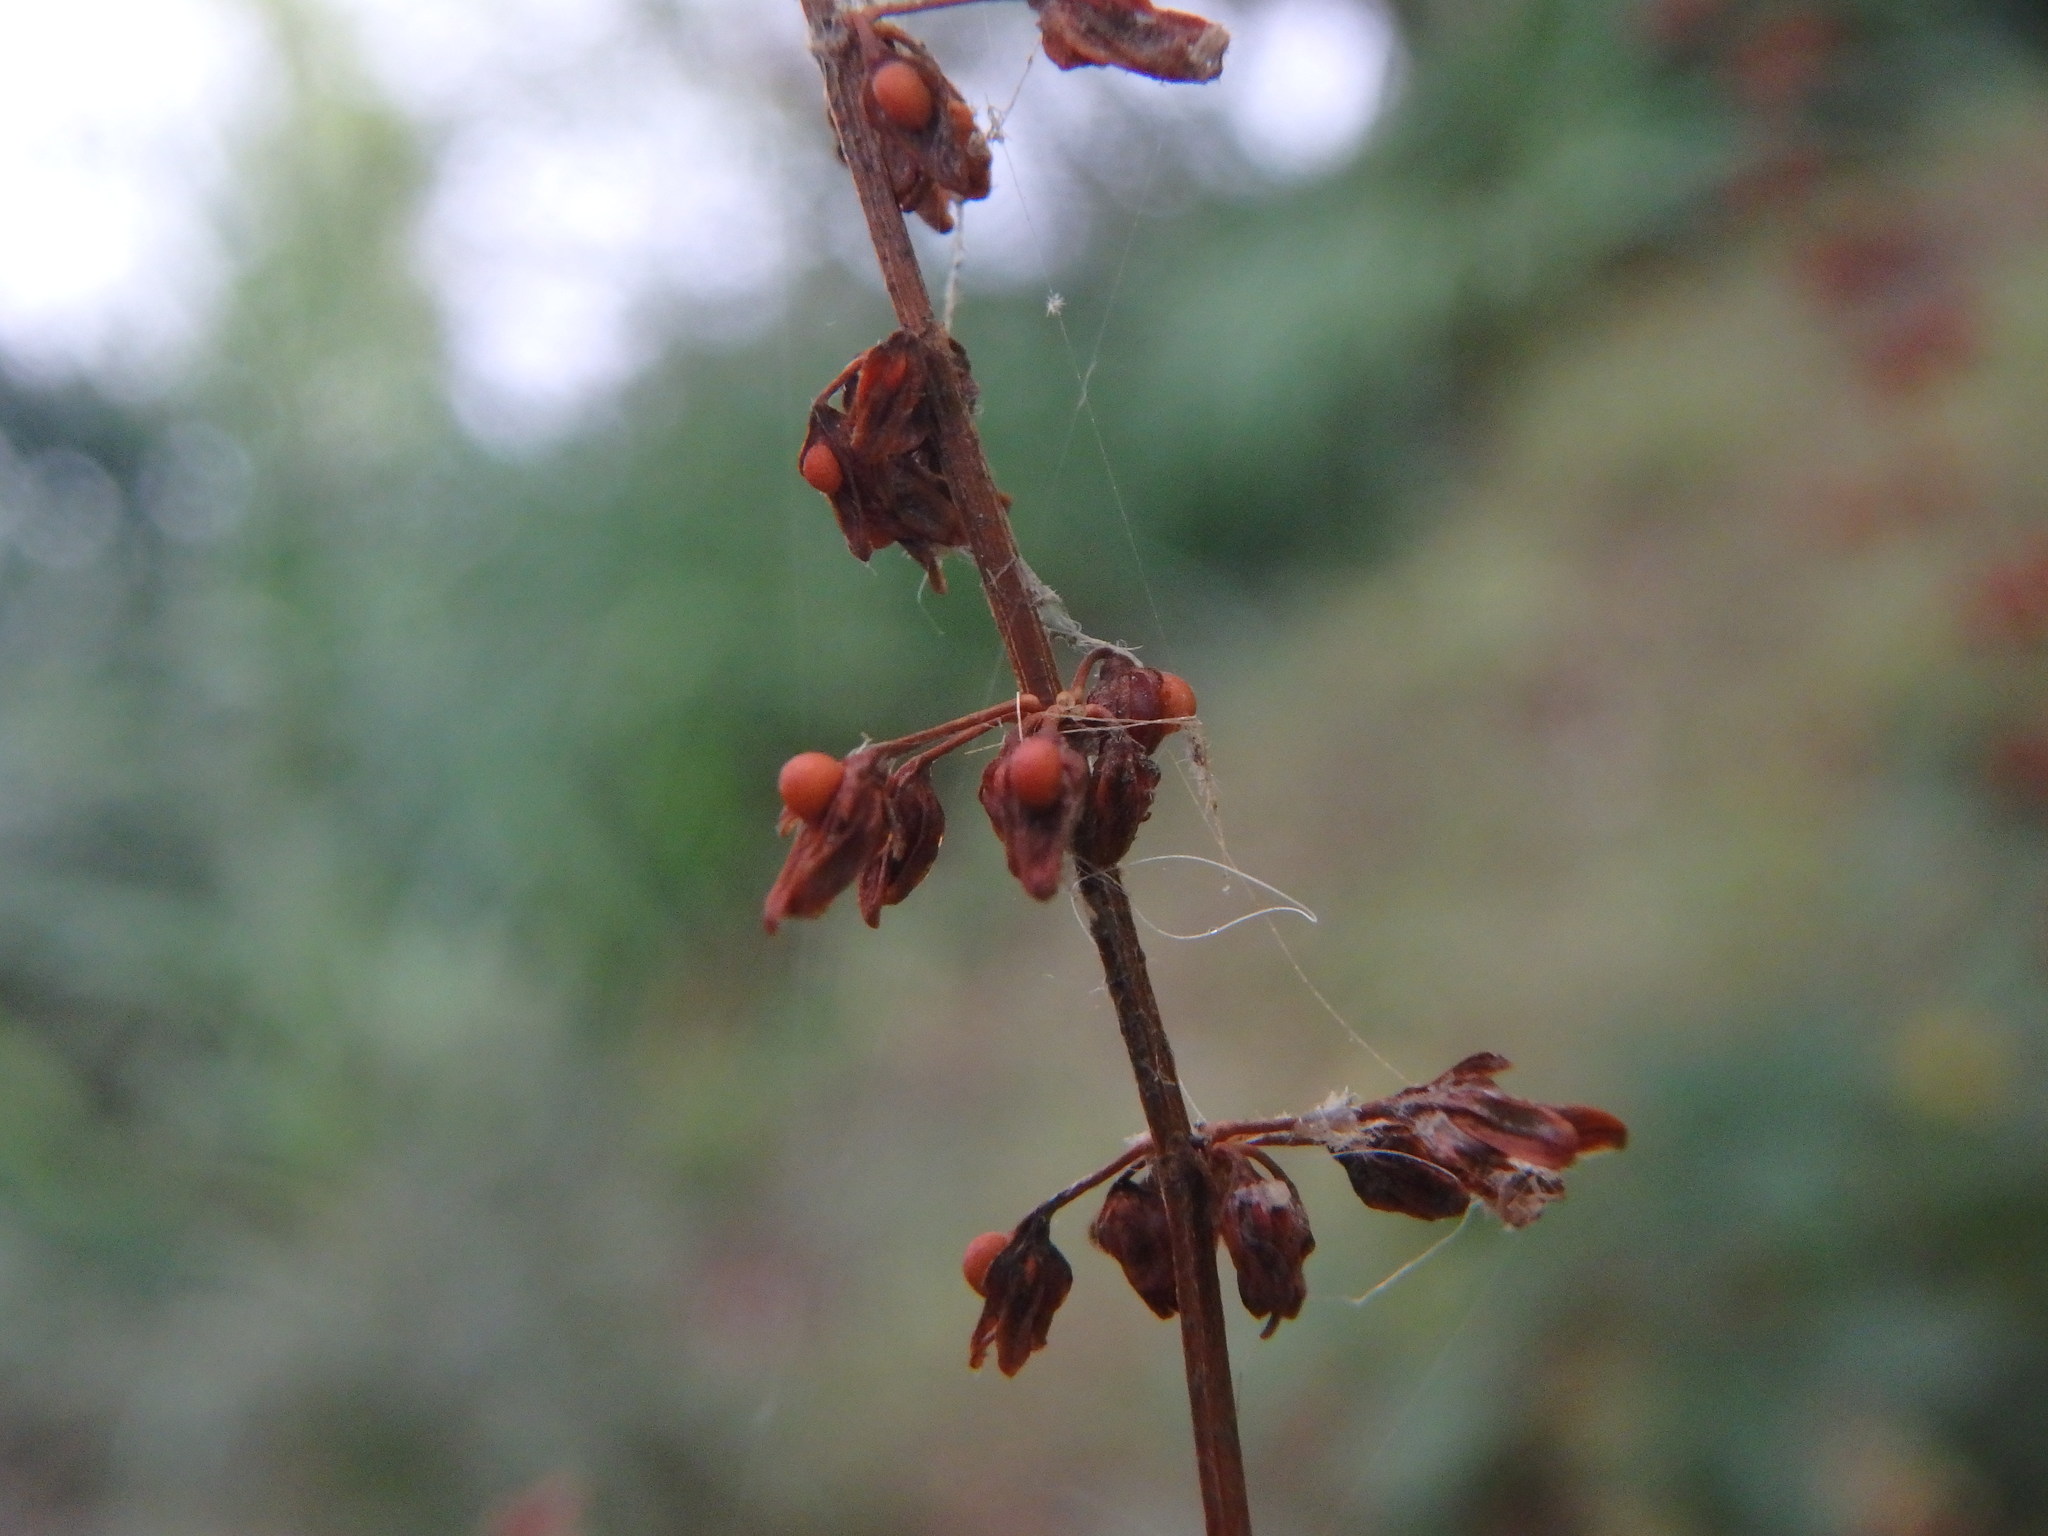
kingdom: Plantae
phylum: Tracheophyta
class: Magnoliopsida
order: Caryophyllales
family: Polygonaceae
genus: Rumex
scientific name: Rumex sanguineus
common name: Wood dock
